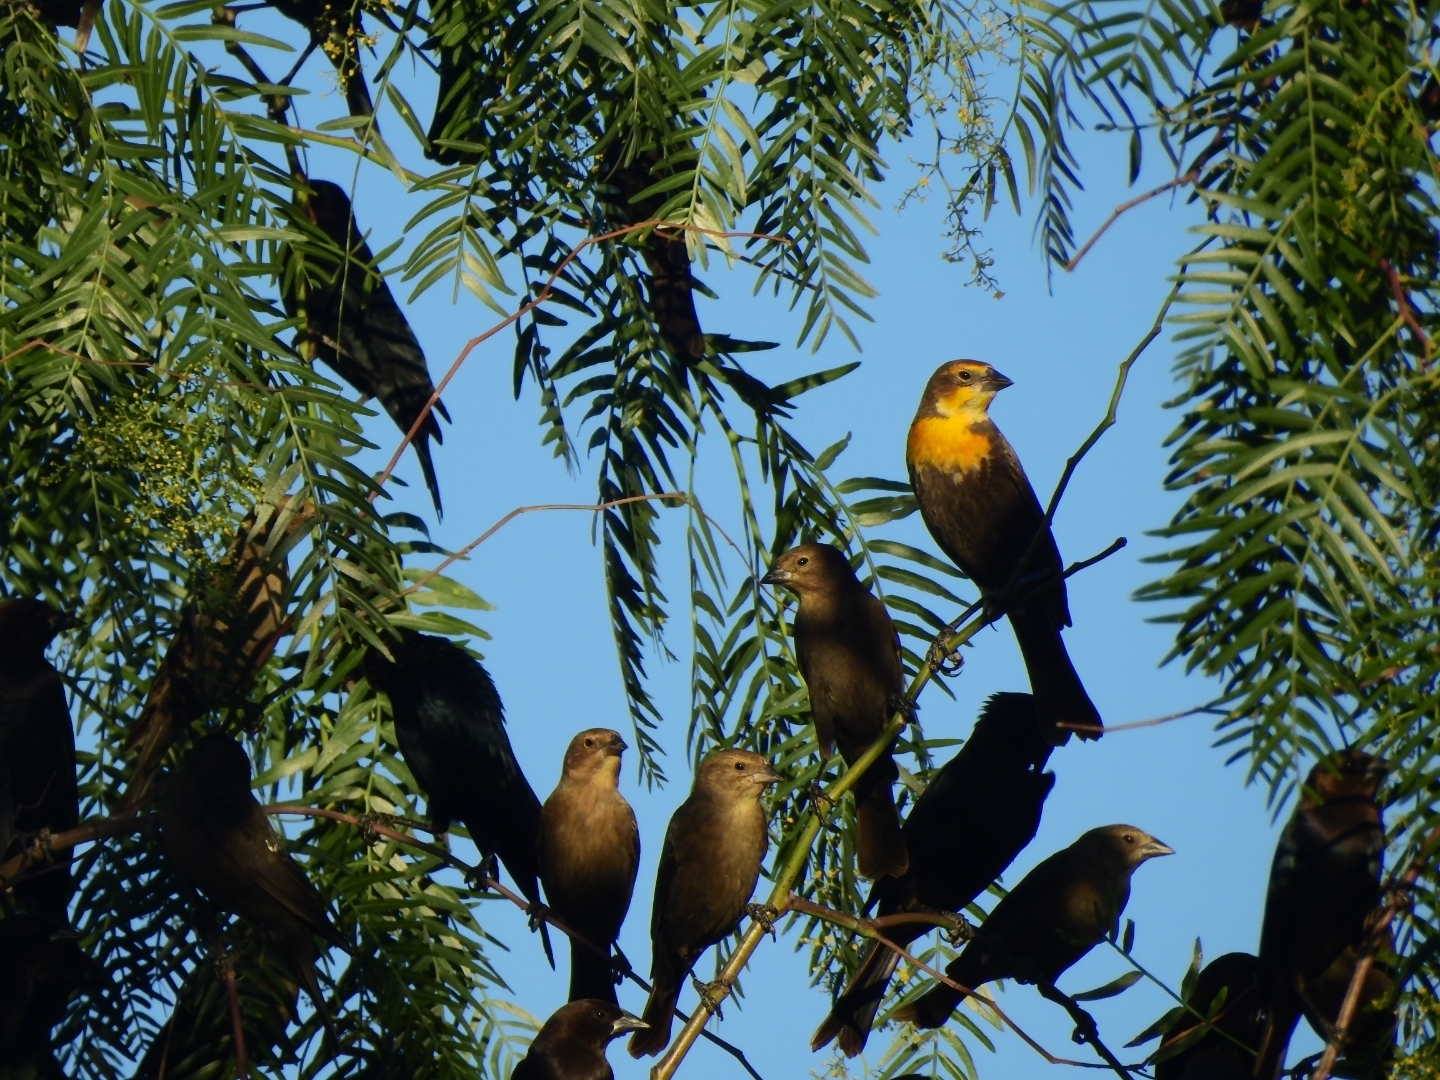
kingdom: Animalia
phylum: Chordata
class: Aves
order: Passeriformes
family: Icteridae
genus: Xanthocephalus
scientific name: Xanthocephalus xanthocephalus
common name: Yellow-headed blackbird
